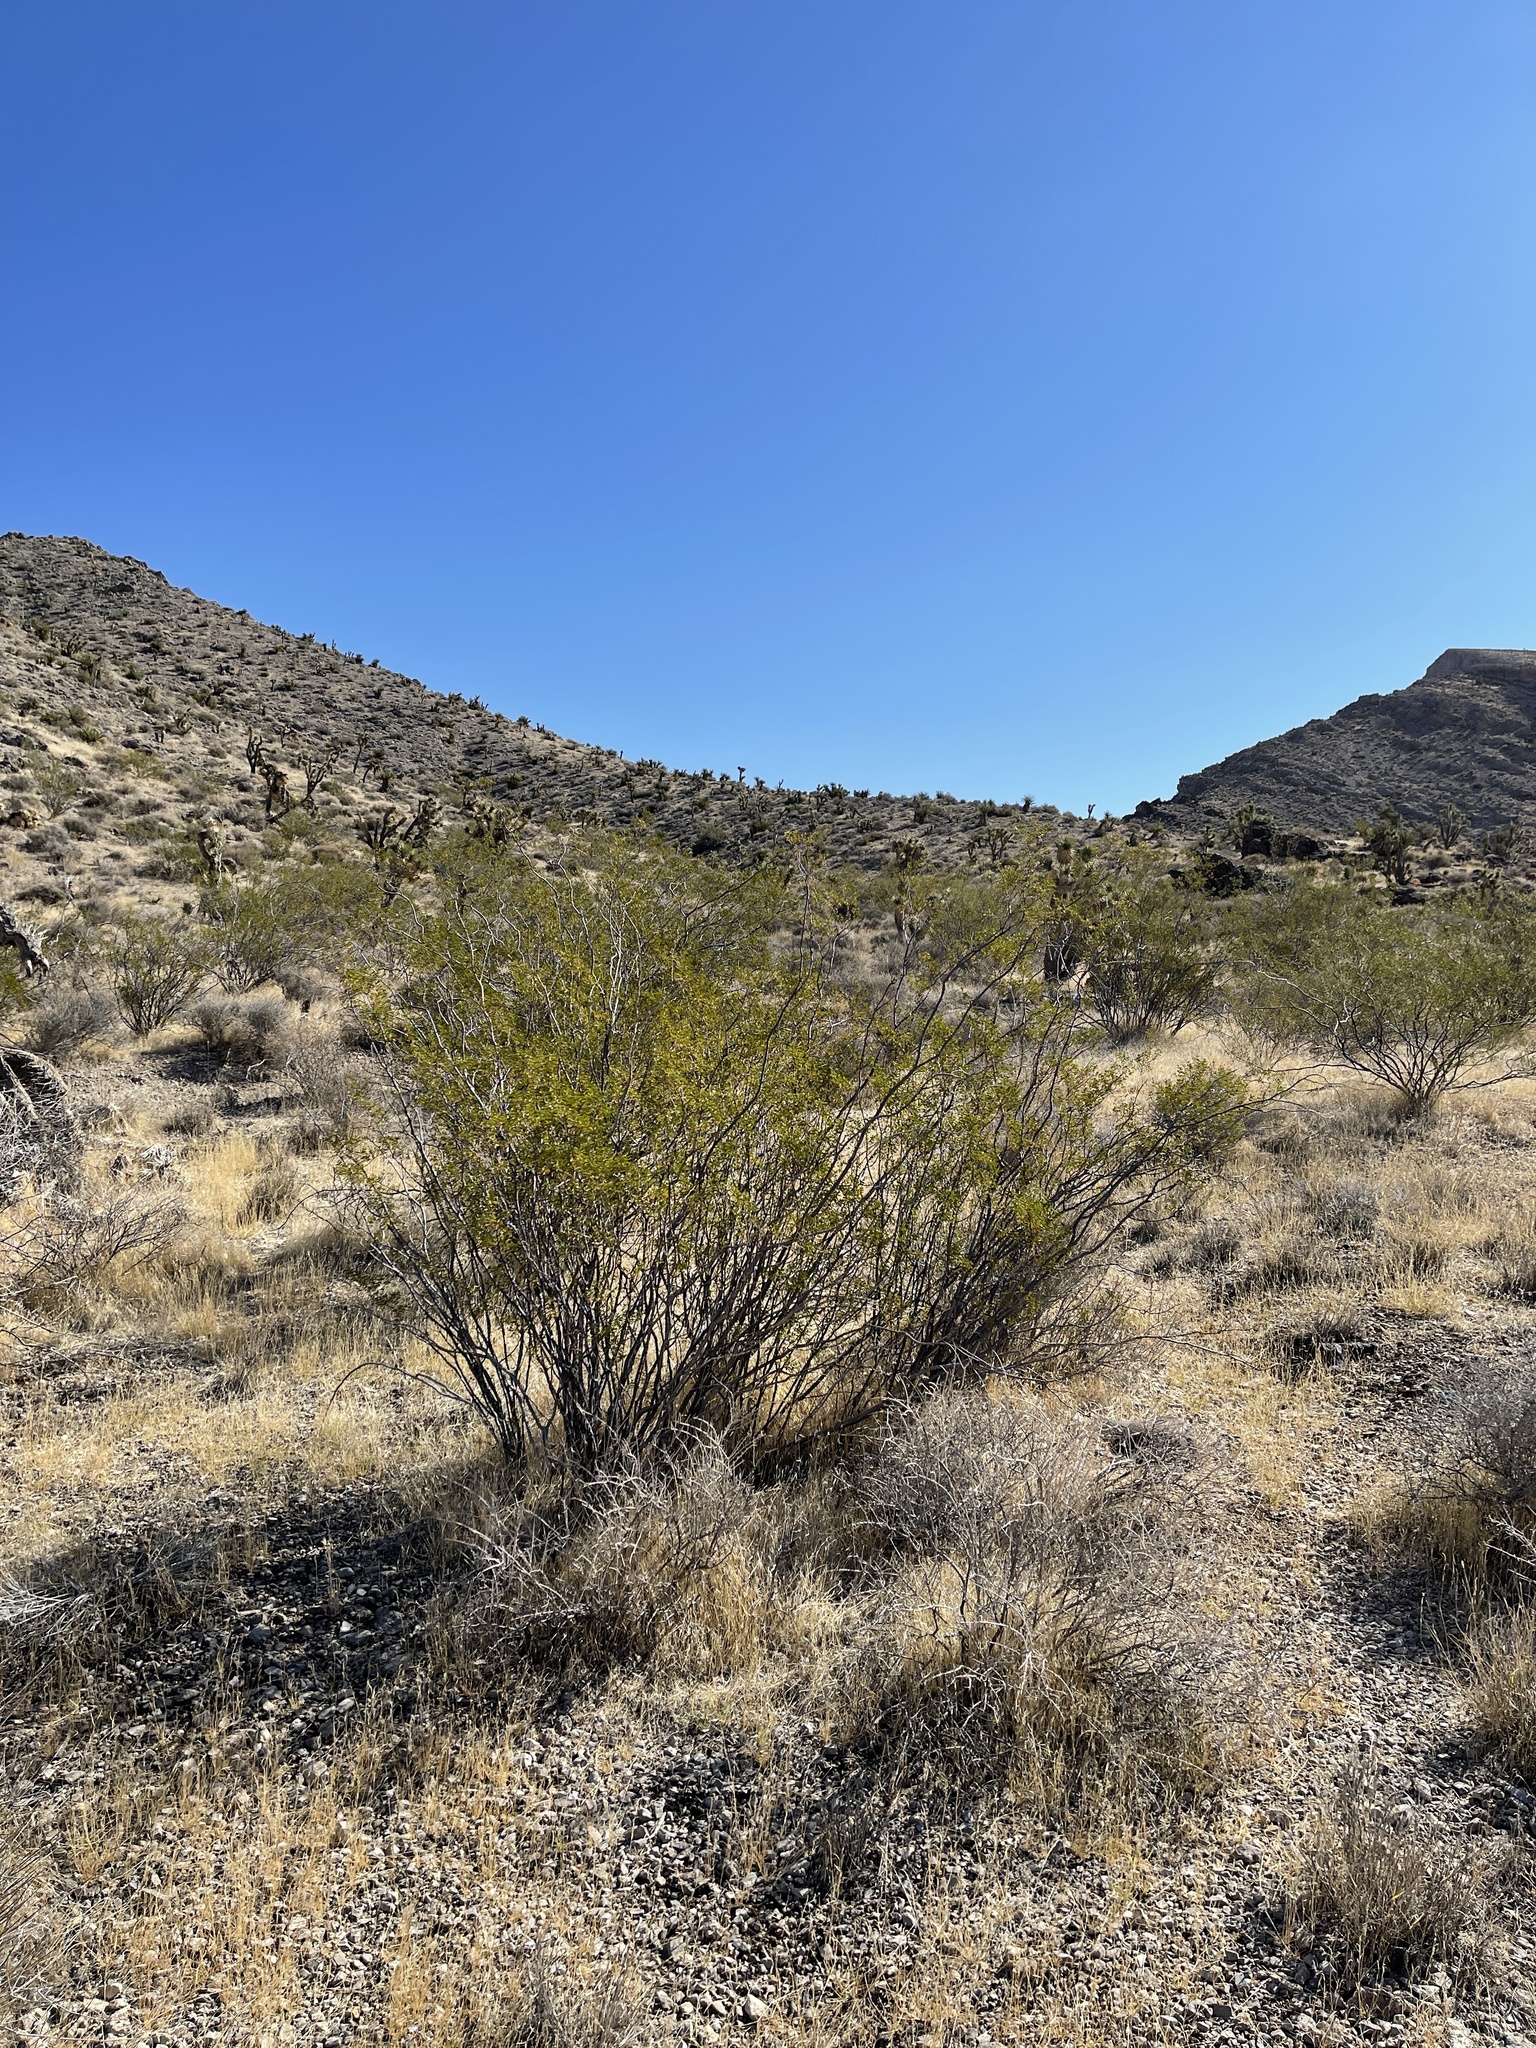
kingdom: Plantae
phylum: Tracheophyta
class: Magnoliopsida
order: Zygophyllales
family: Zygophyllaceae
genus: Larrea
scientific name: Larrea tridentata
